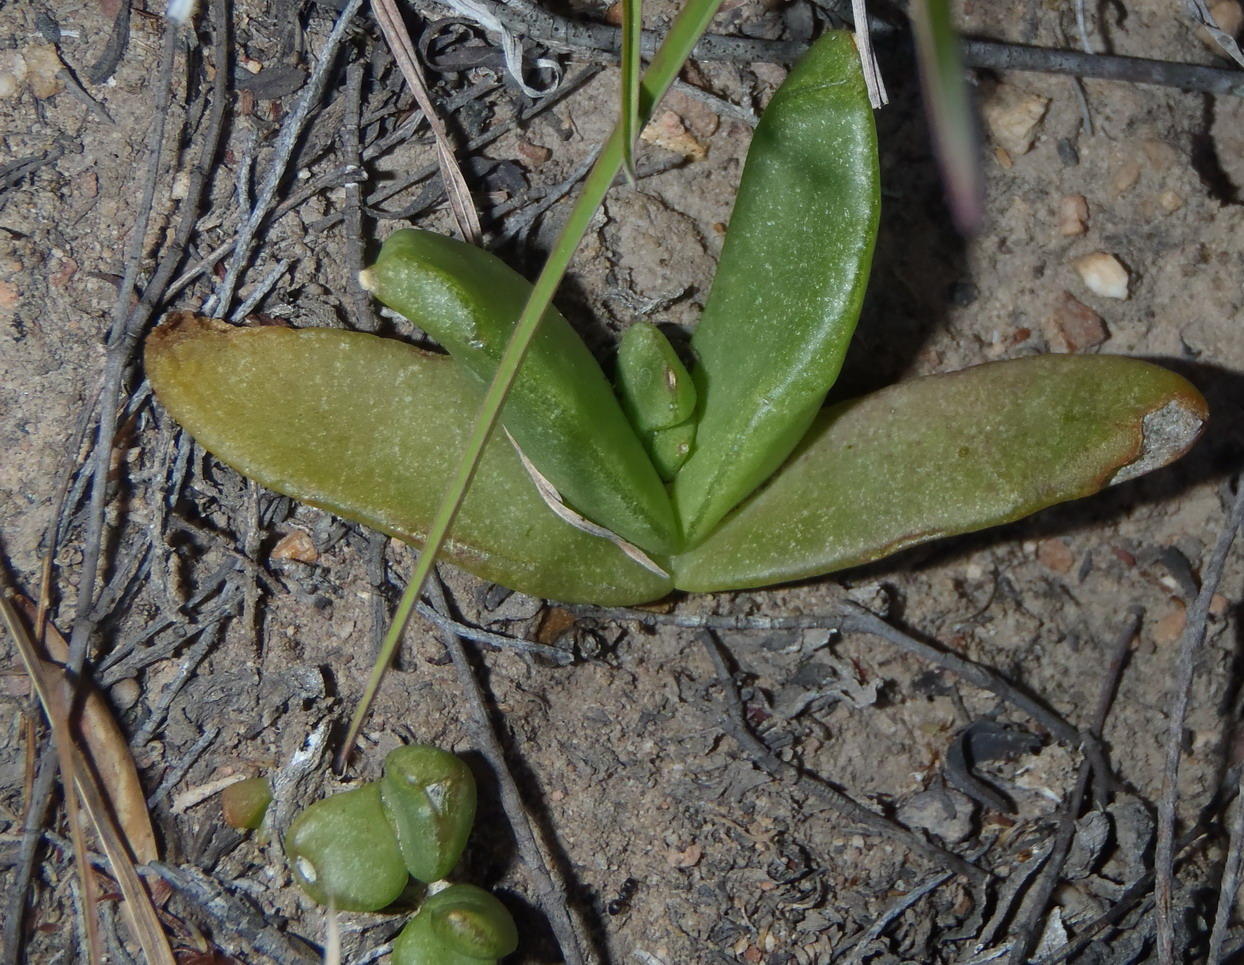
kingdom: Plantae
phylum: Tracheophyta
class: Magnoliopsida
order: Caryophyllales
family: Aizoaceae
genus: Glottiphyllum
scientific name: Glottiphyllum depressum
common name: Fig-marigold
